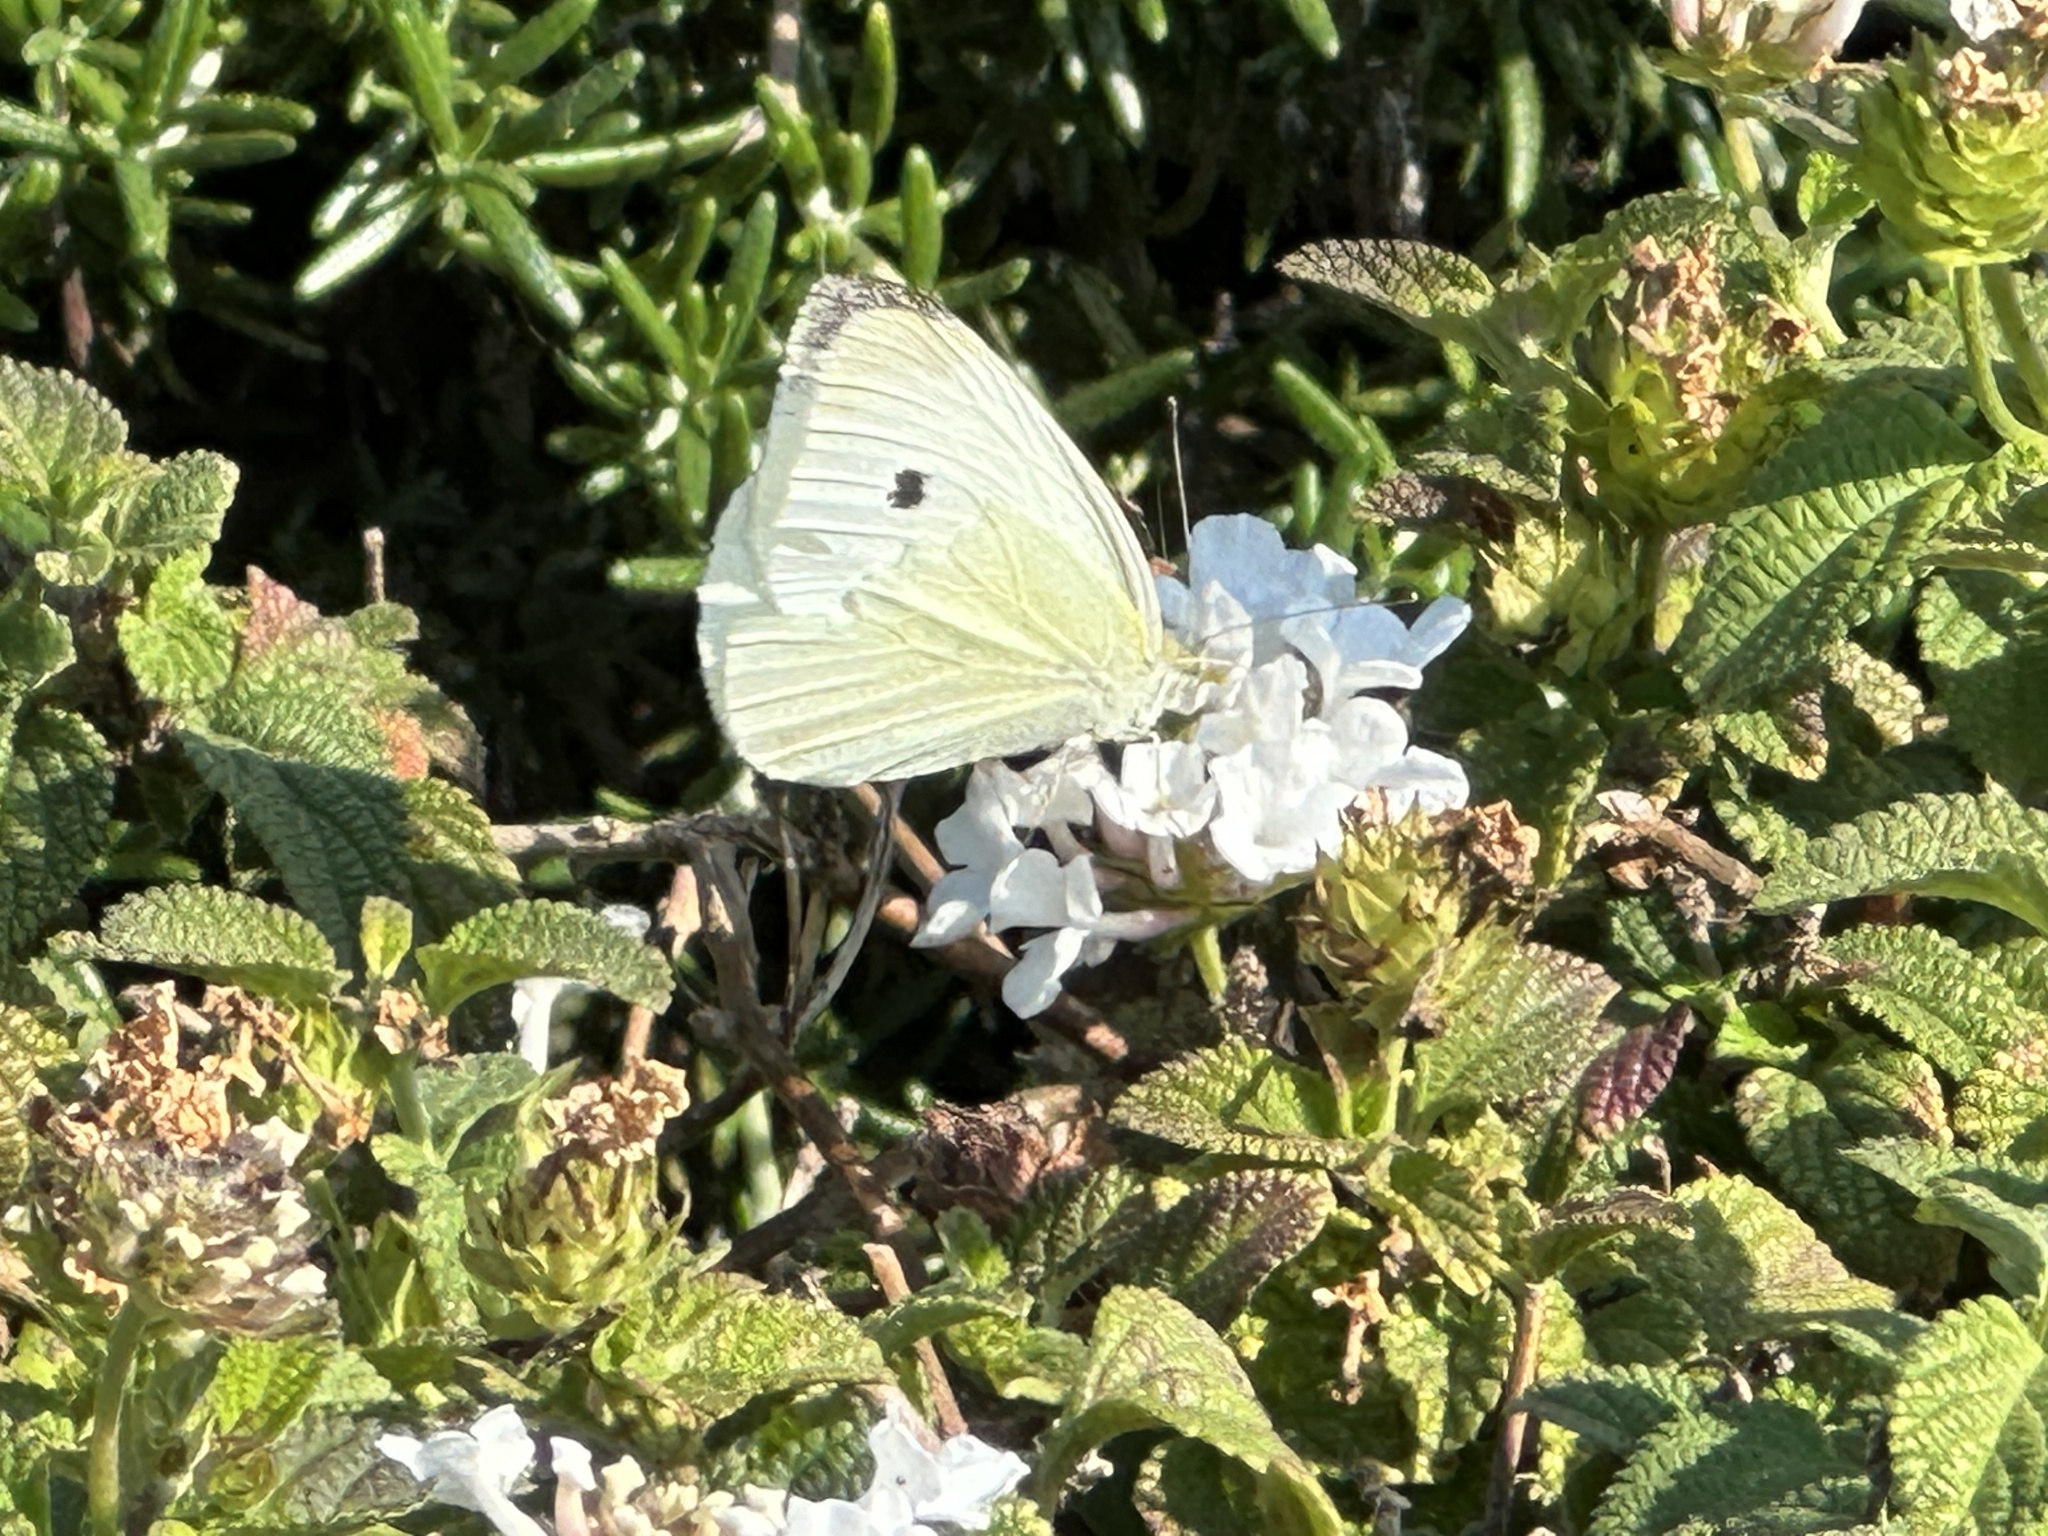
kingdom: Animalia
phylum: Arthropoda
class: Insecta
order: Lepidoptera
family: Pieridae
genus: Pieris
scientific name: Pieris rapae
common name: Small white
